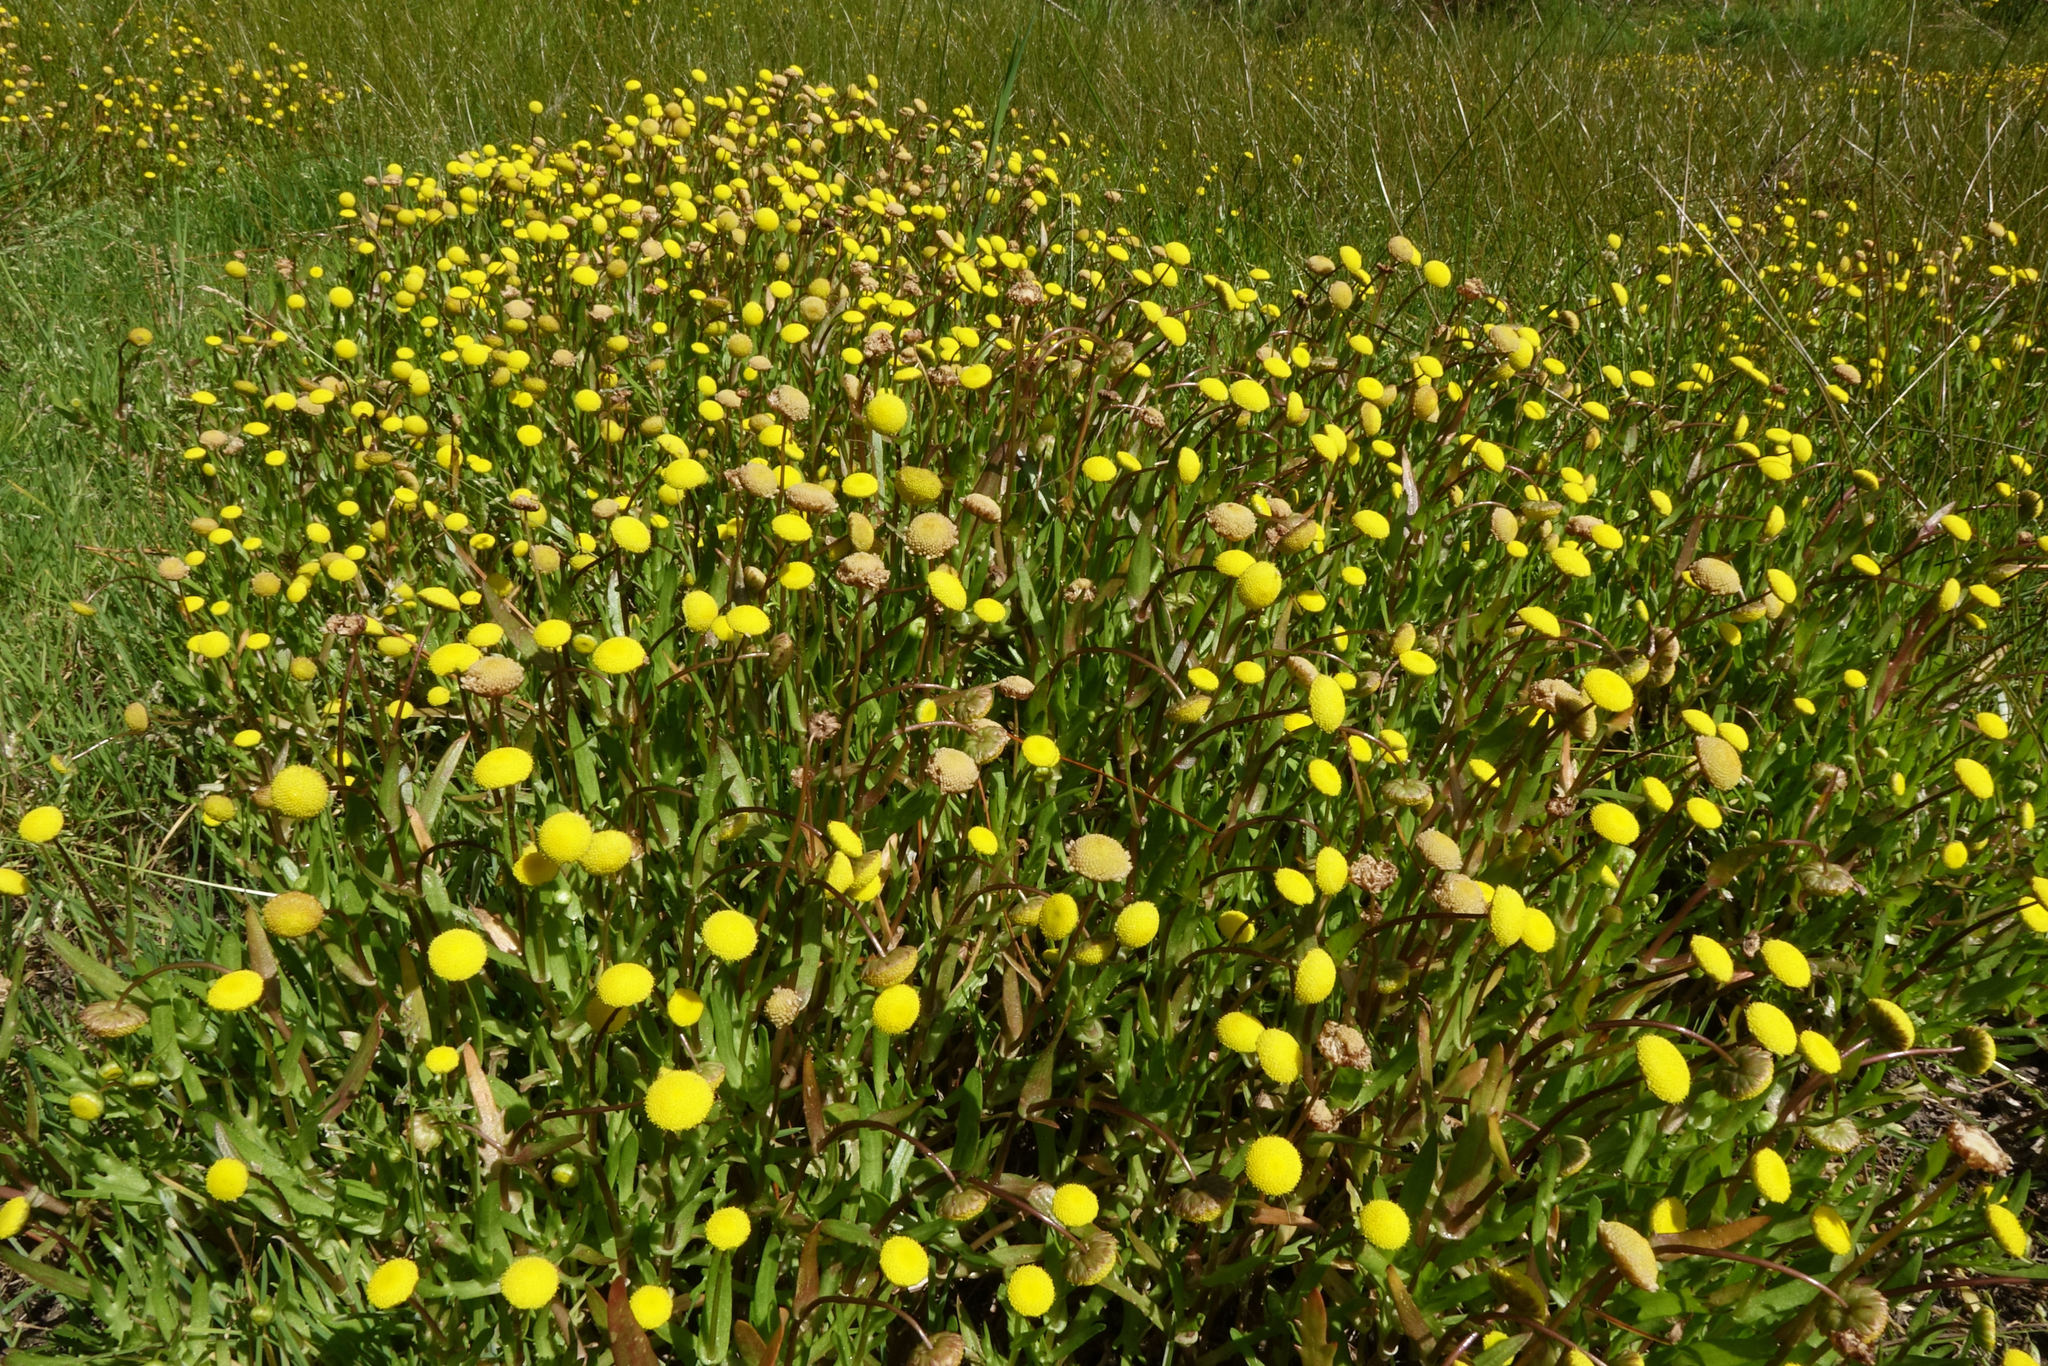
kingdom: Plantae
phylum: Tracheophyta
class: Magnoliopsida
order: Asterales
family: Asteraceae
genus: Cotula
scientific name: Cotula coronopifolia
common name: Buttonweed
